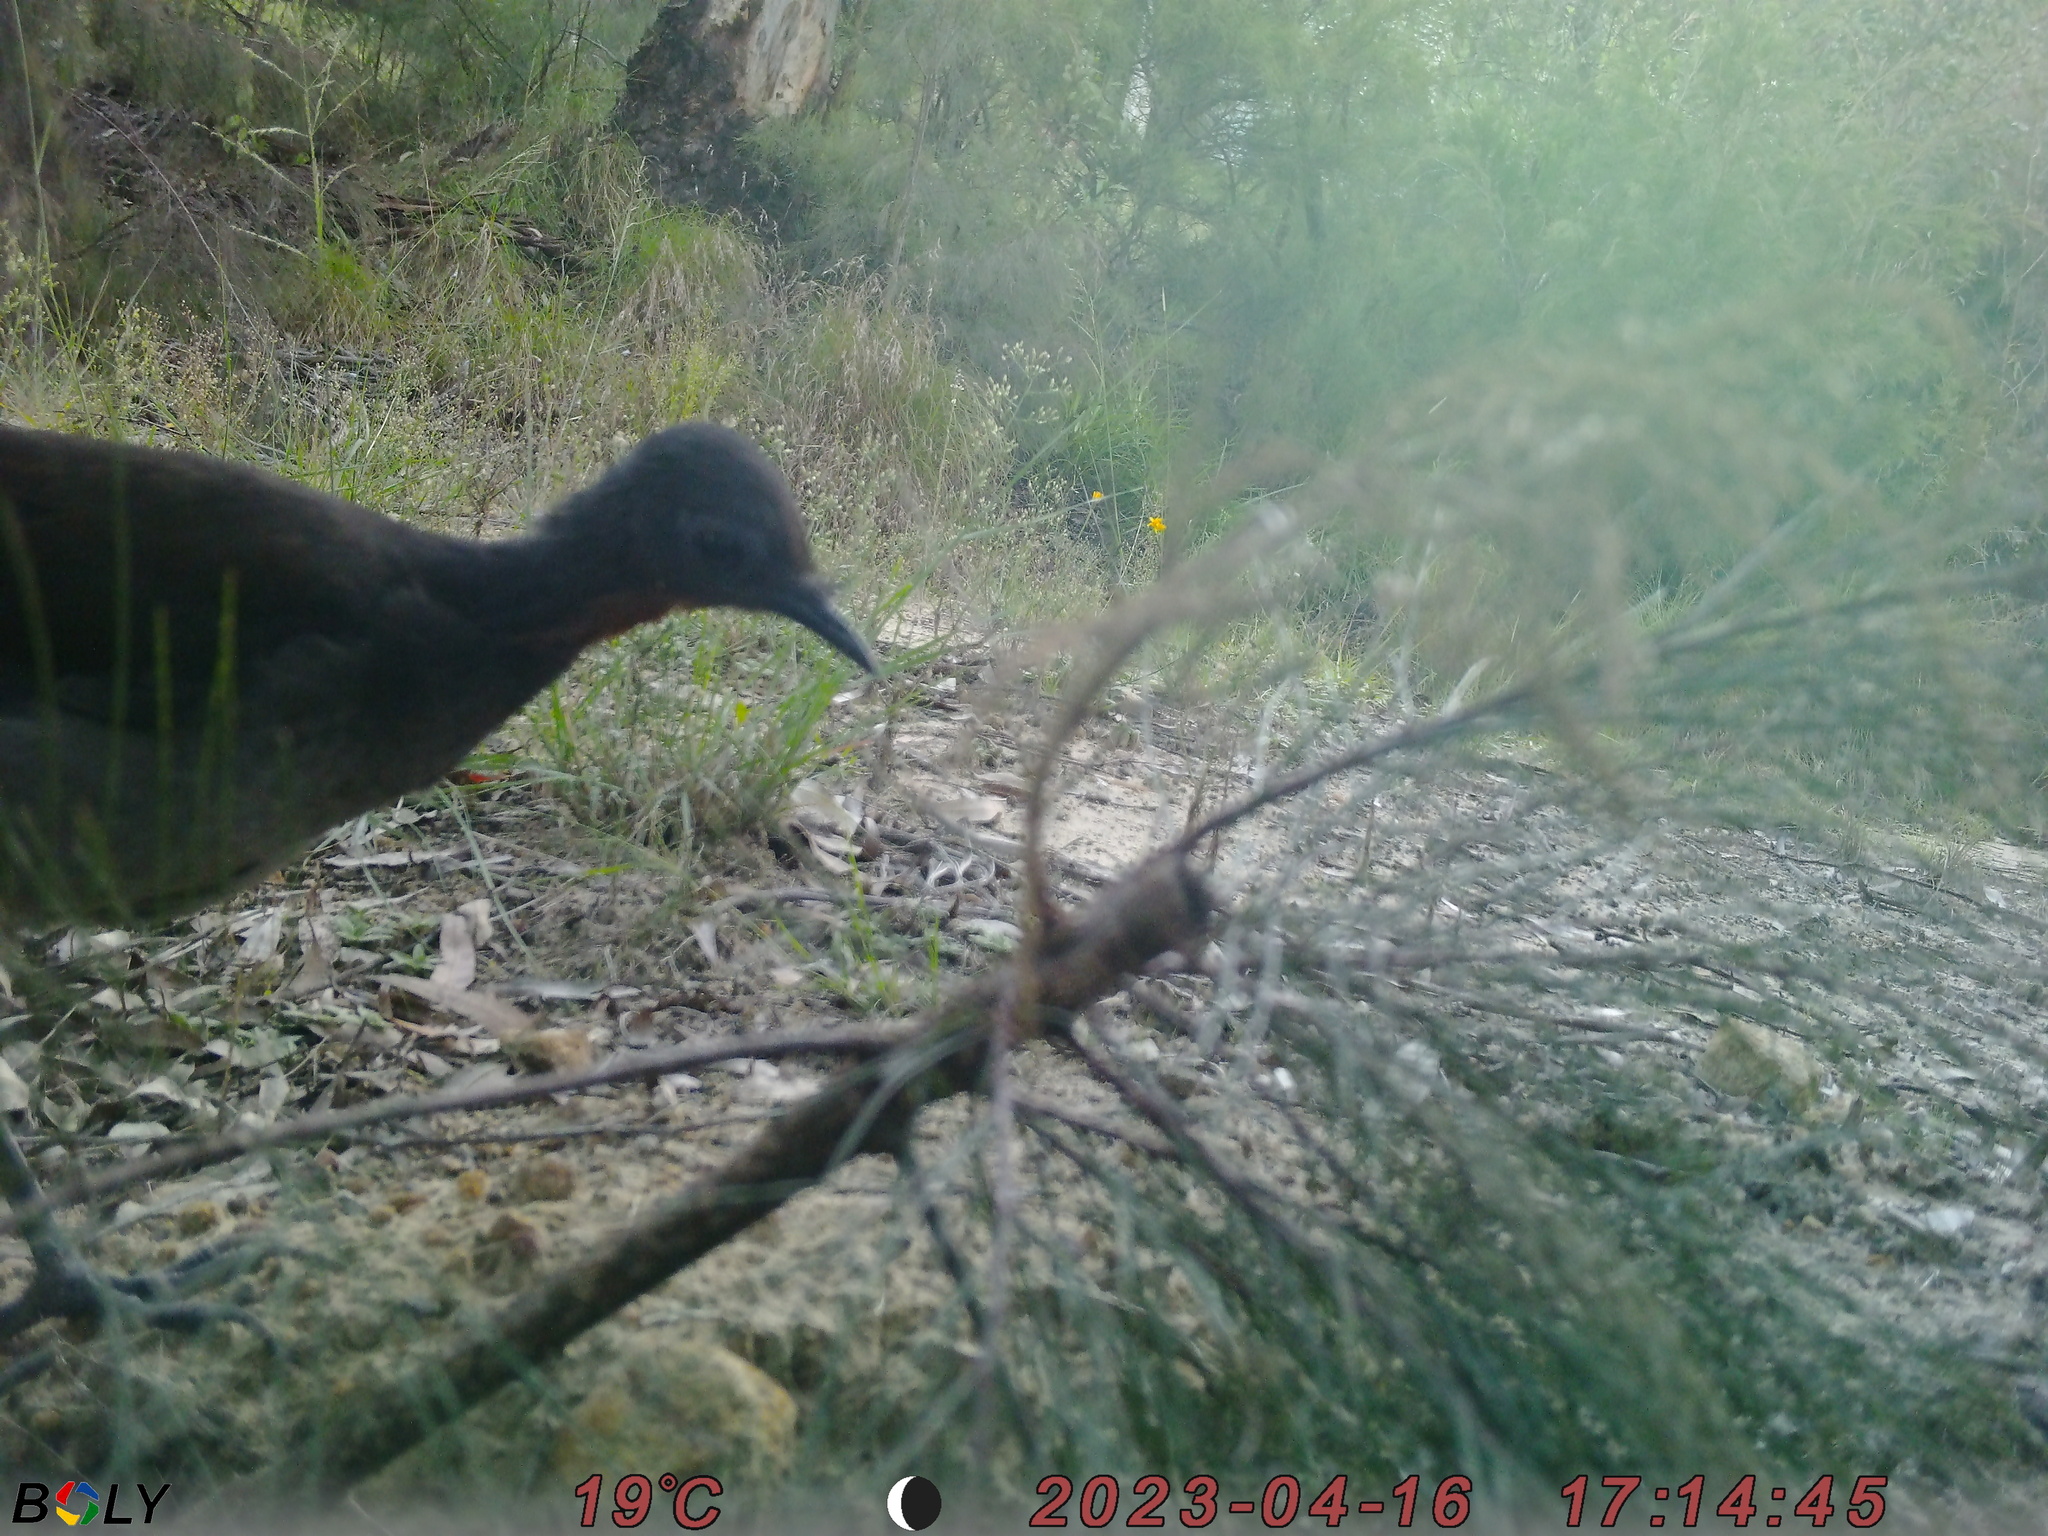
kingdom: Animalia
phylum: Chordata
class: Aves
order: Passeriformes
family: Menuridae
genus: Menura
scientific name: Menura novaehollandiae
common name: Superb lyrebird
